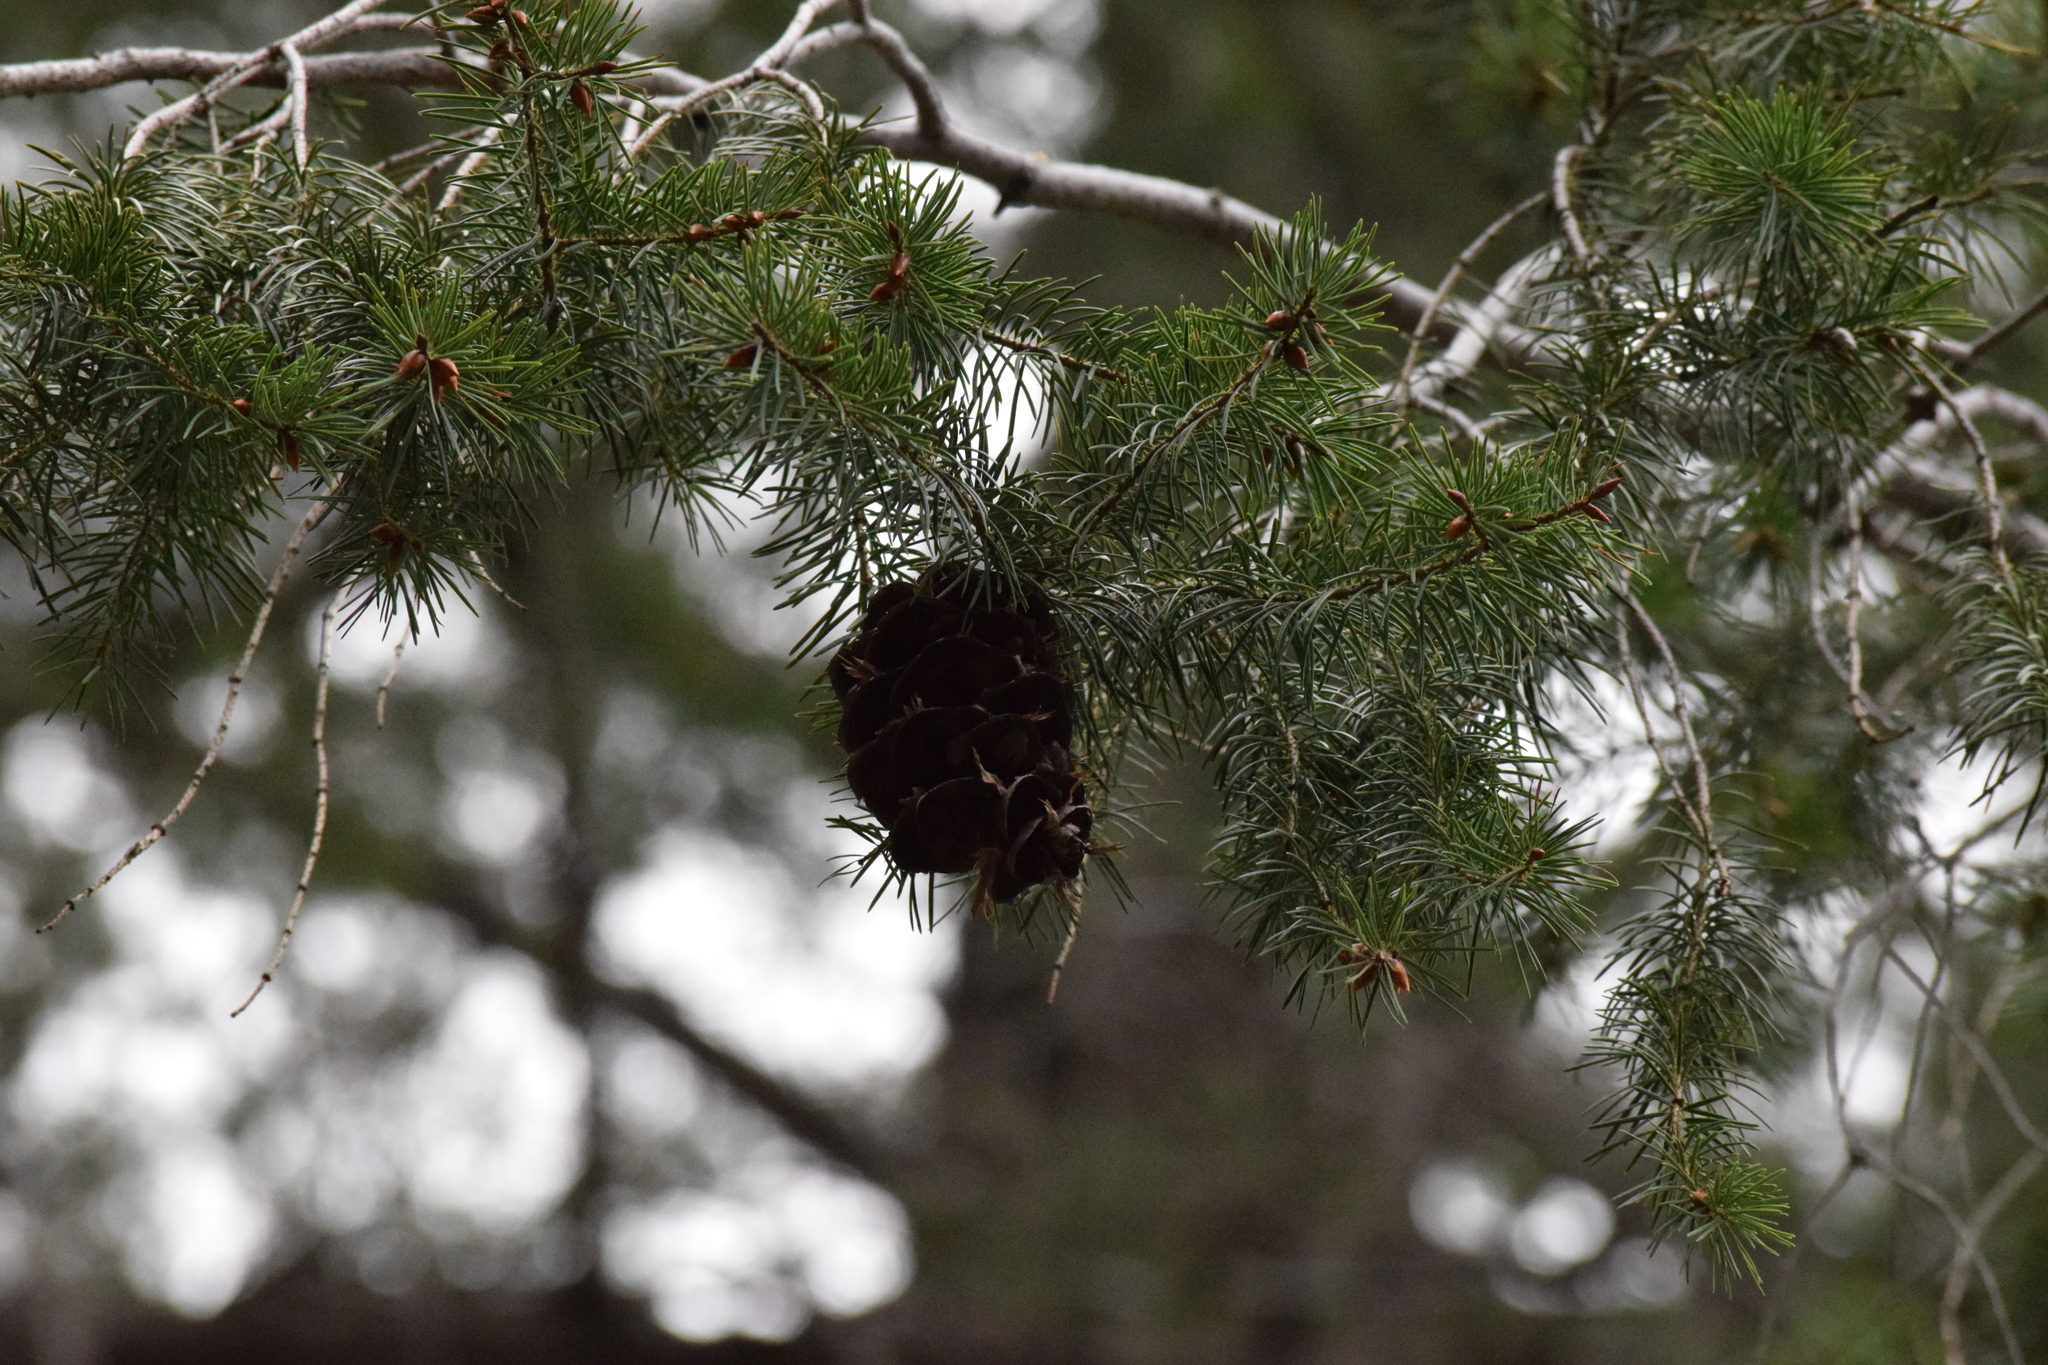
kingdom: Plantae
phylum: Tracheophyta
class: Pinopsida
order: Pinales
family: Pinaceae
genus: Pseudotsuga
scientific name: Pseudotsuga macrocarpa
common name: Big-cone douglas-fir
